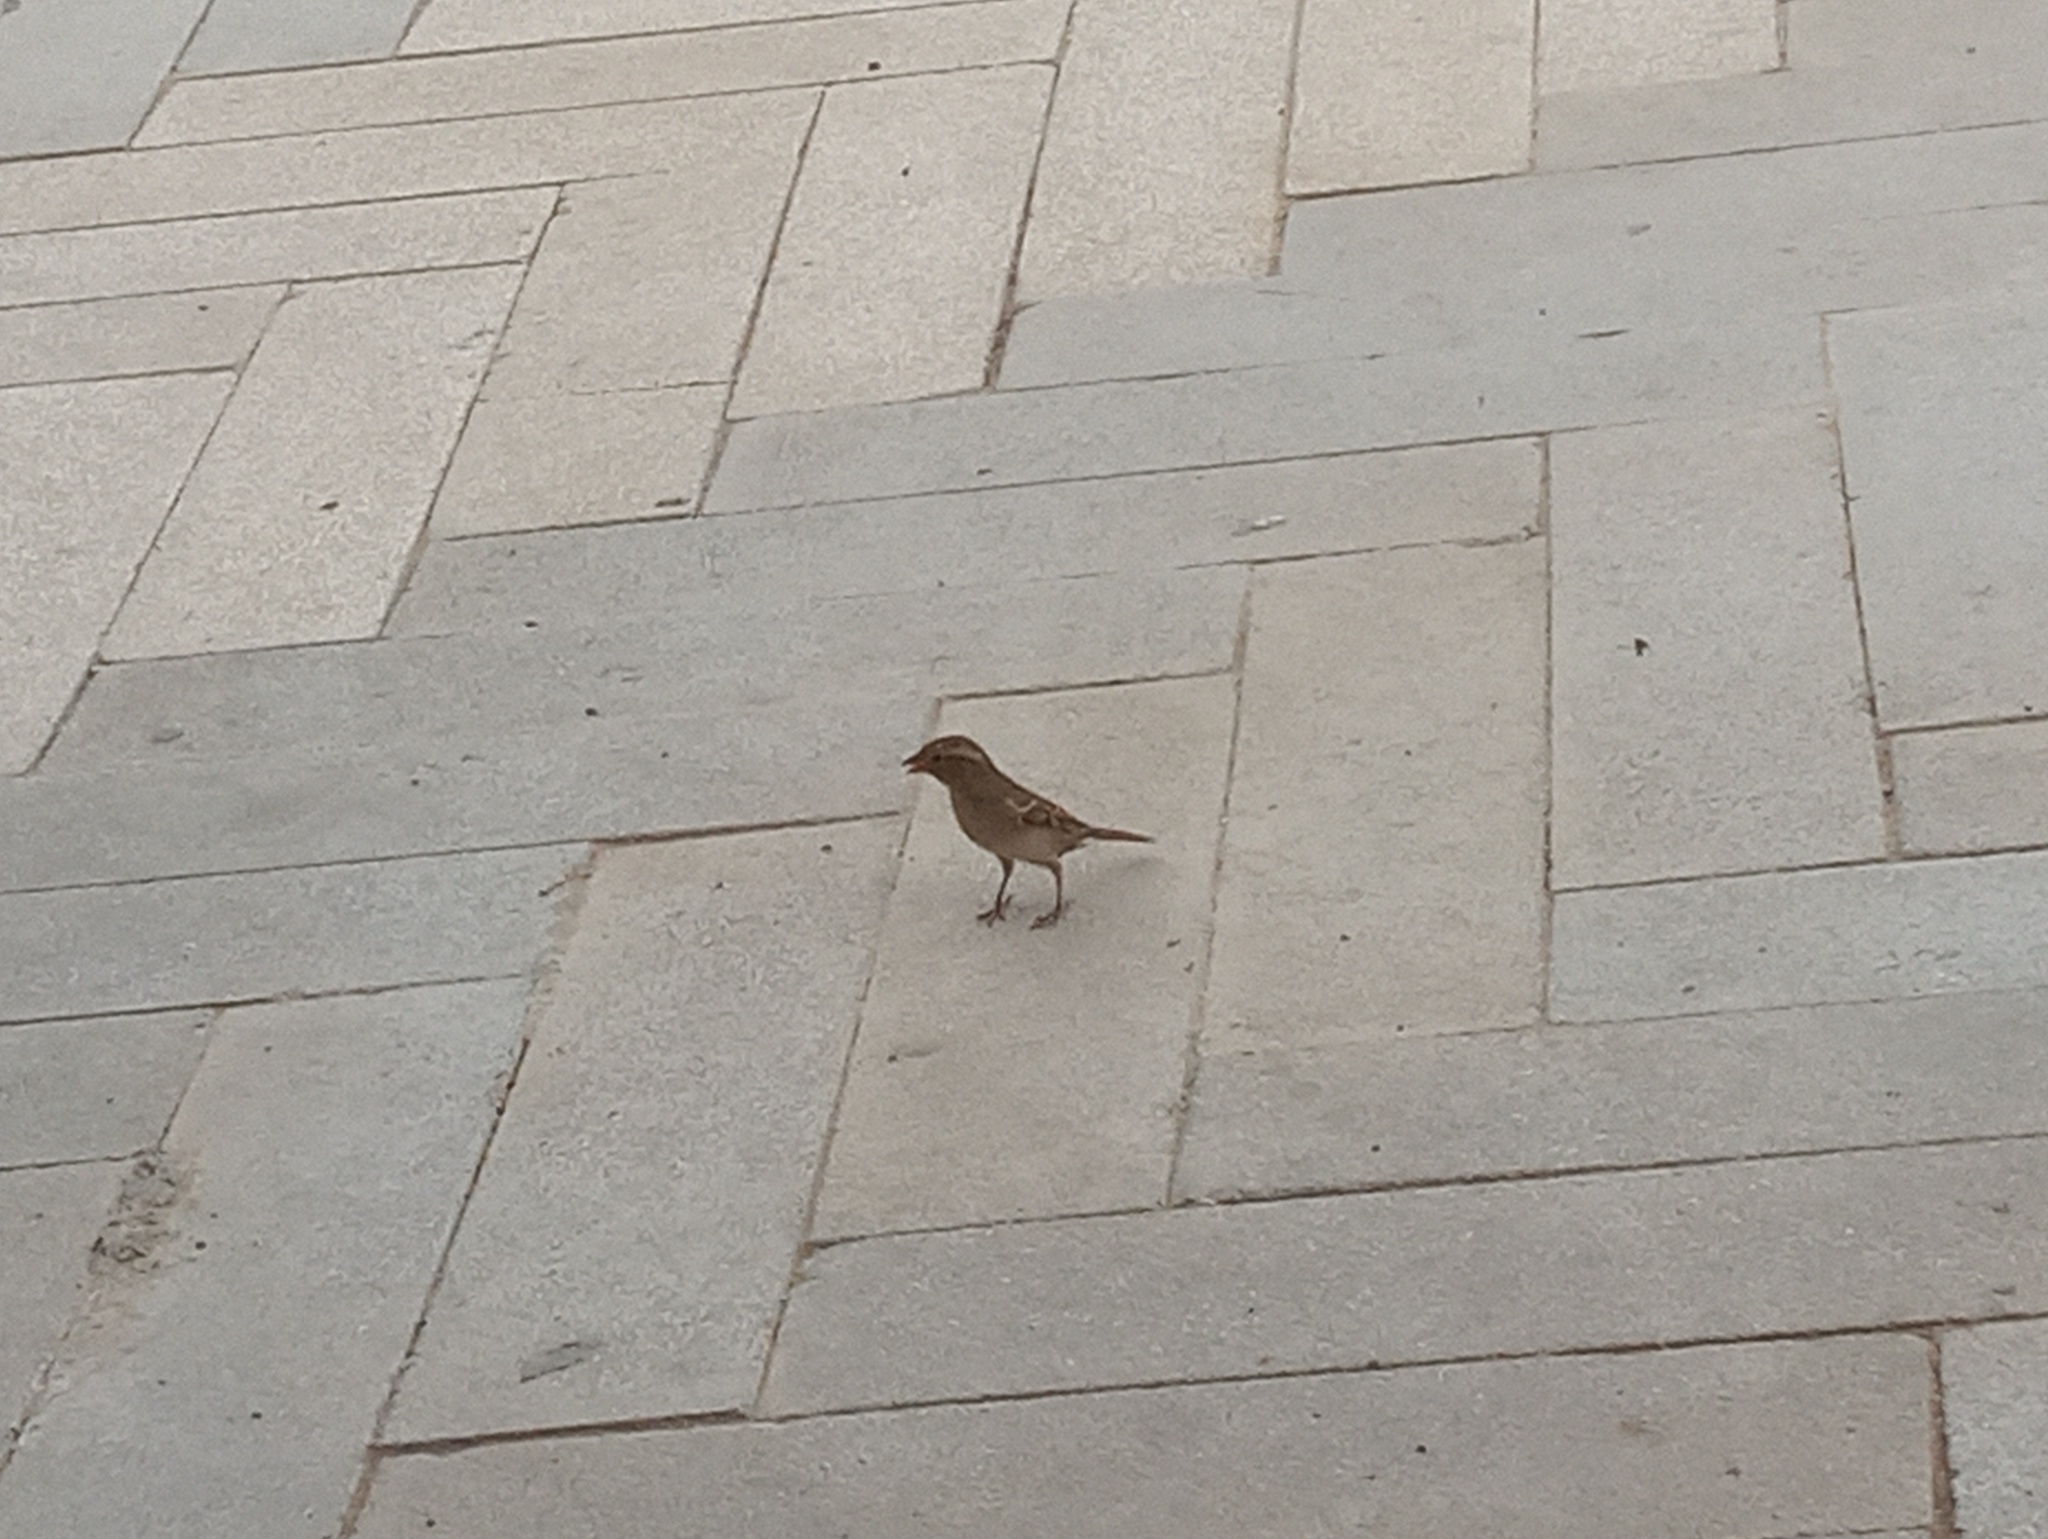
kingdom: Animalia
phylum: Chordata
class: Aves
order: Passeriformes
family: Passeridae
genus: Passer
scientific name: Passer domesticus
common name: House sparrow
